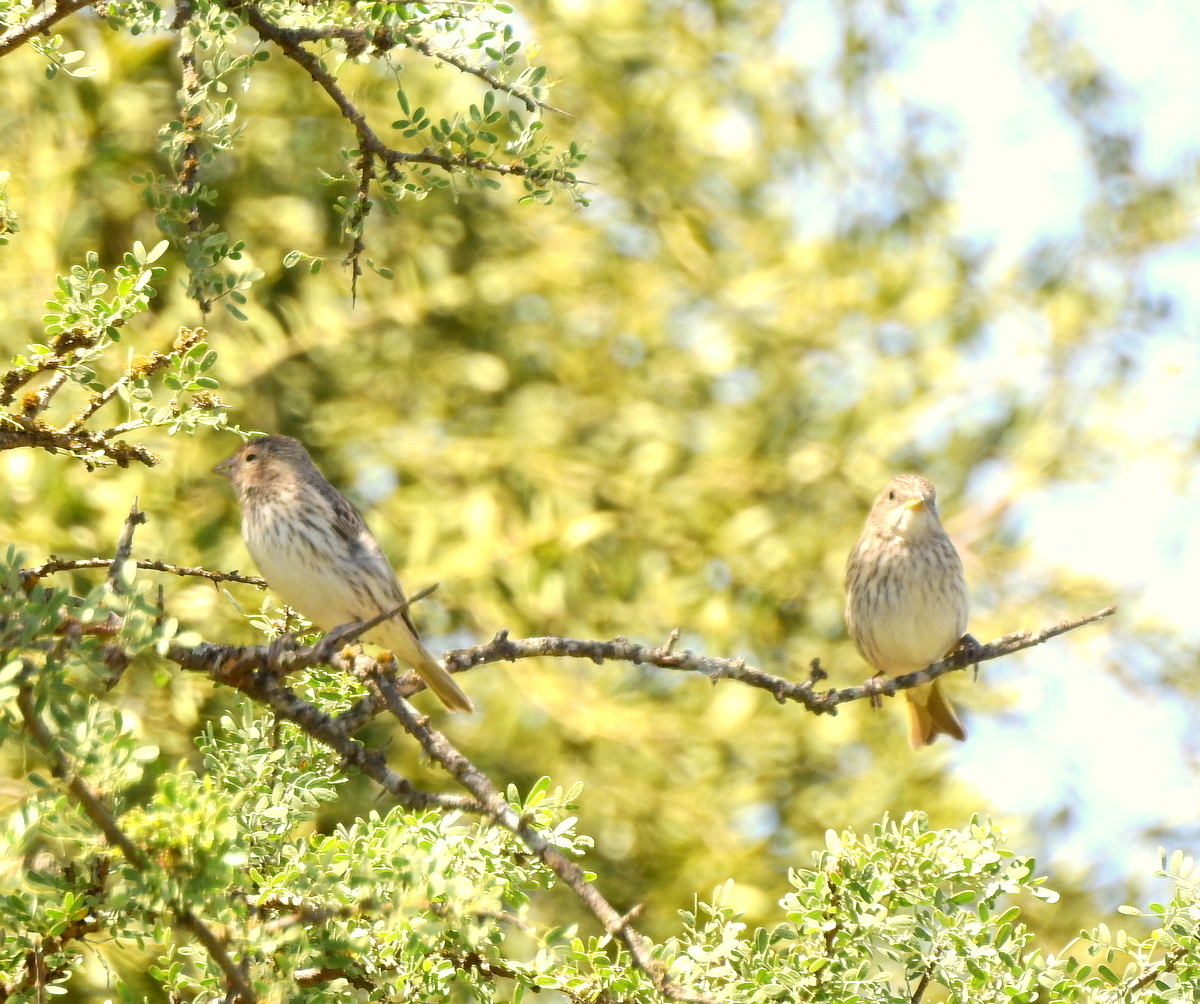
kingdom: Animalia
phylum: Chordata
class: Aves
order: Passeriformes
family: Thraupidae
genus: Sicalis
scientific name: Sicalis flaveola
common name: Saffron finch
